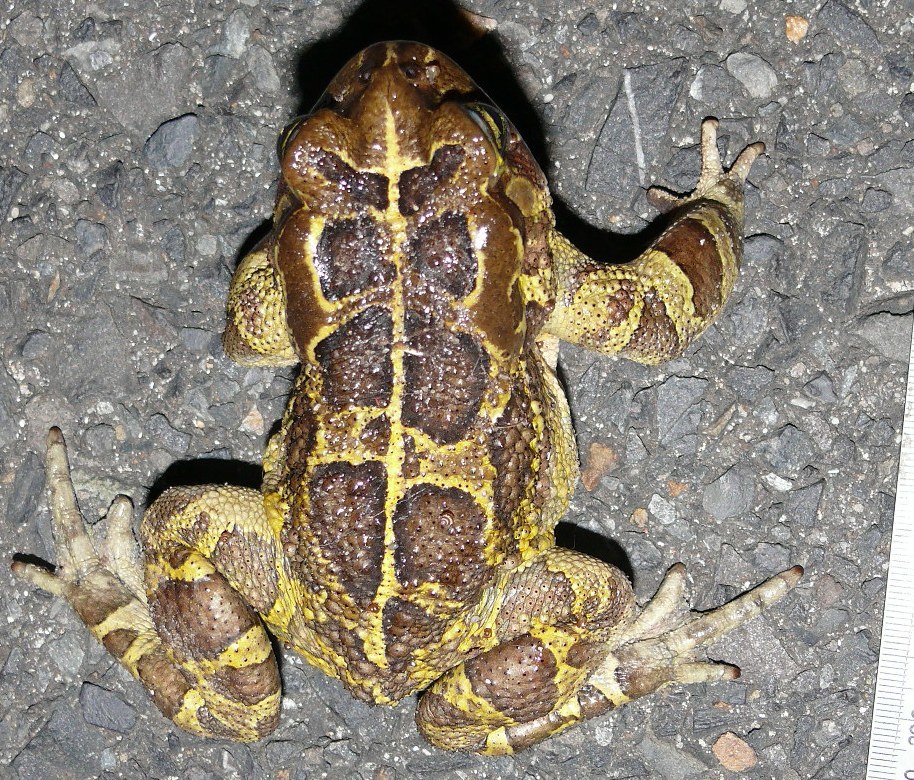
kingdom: Animalia
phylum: Chordata
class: Amphibia
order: Anura
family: Bufonidae
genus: Sclerophrys
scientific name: Sclerophrys pantherina
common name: Panther toad
